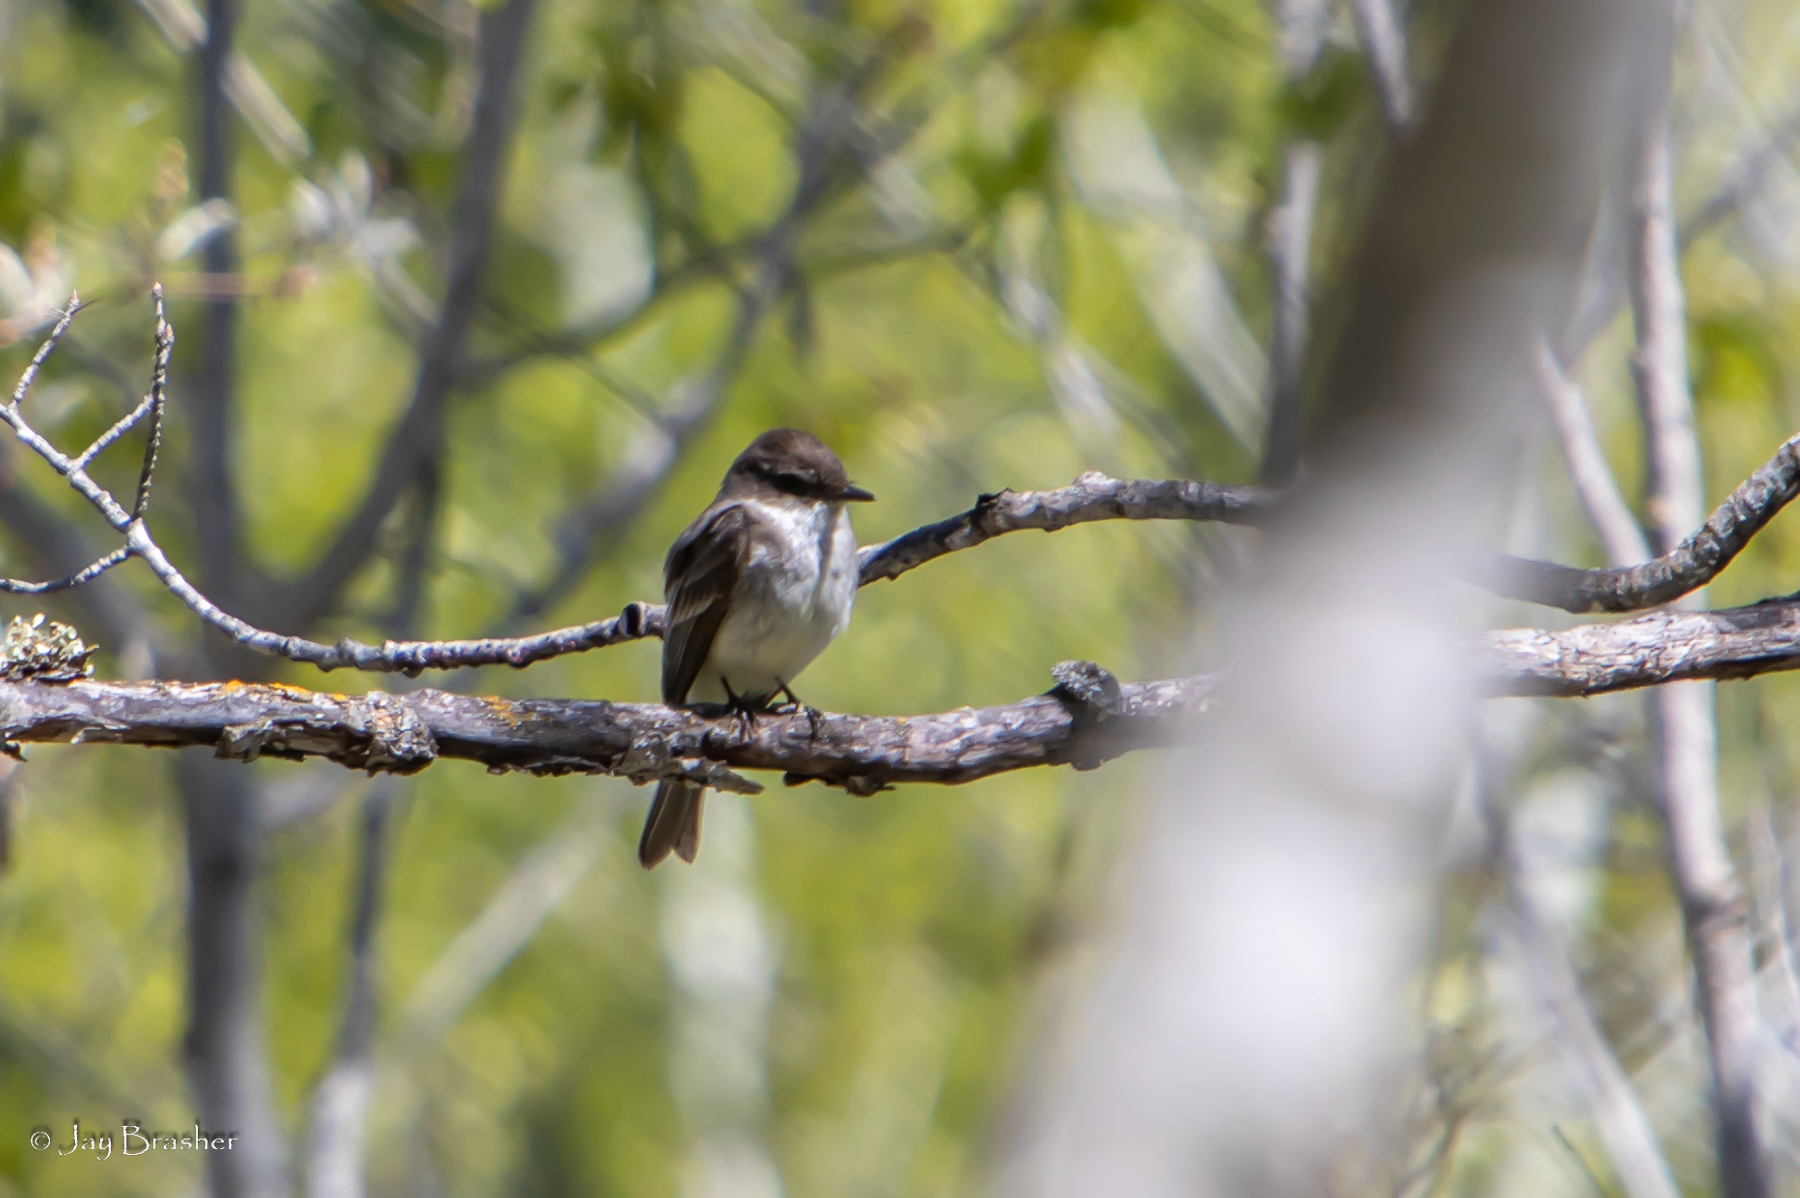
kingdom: Animalia
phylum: Chordata
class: Aves
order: Passeriformes
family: Tyrannidae
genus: Sayornis
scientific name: Sayornis phoebe
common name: Eastern phoebe
